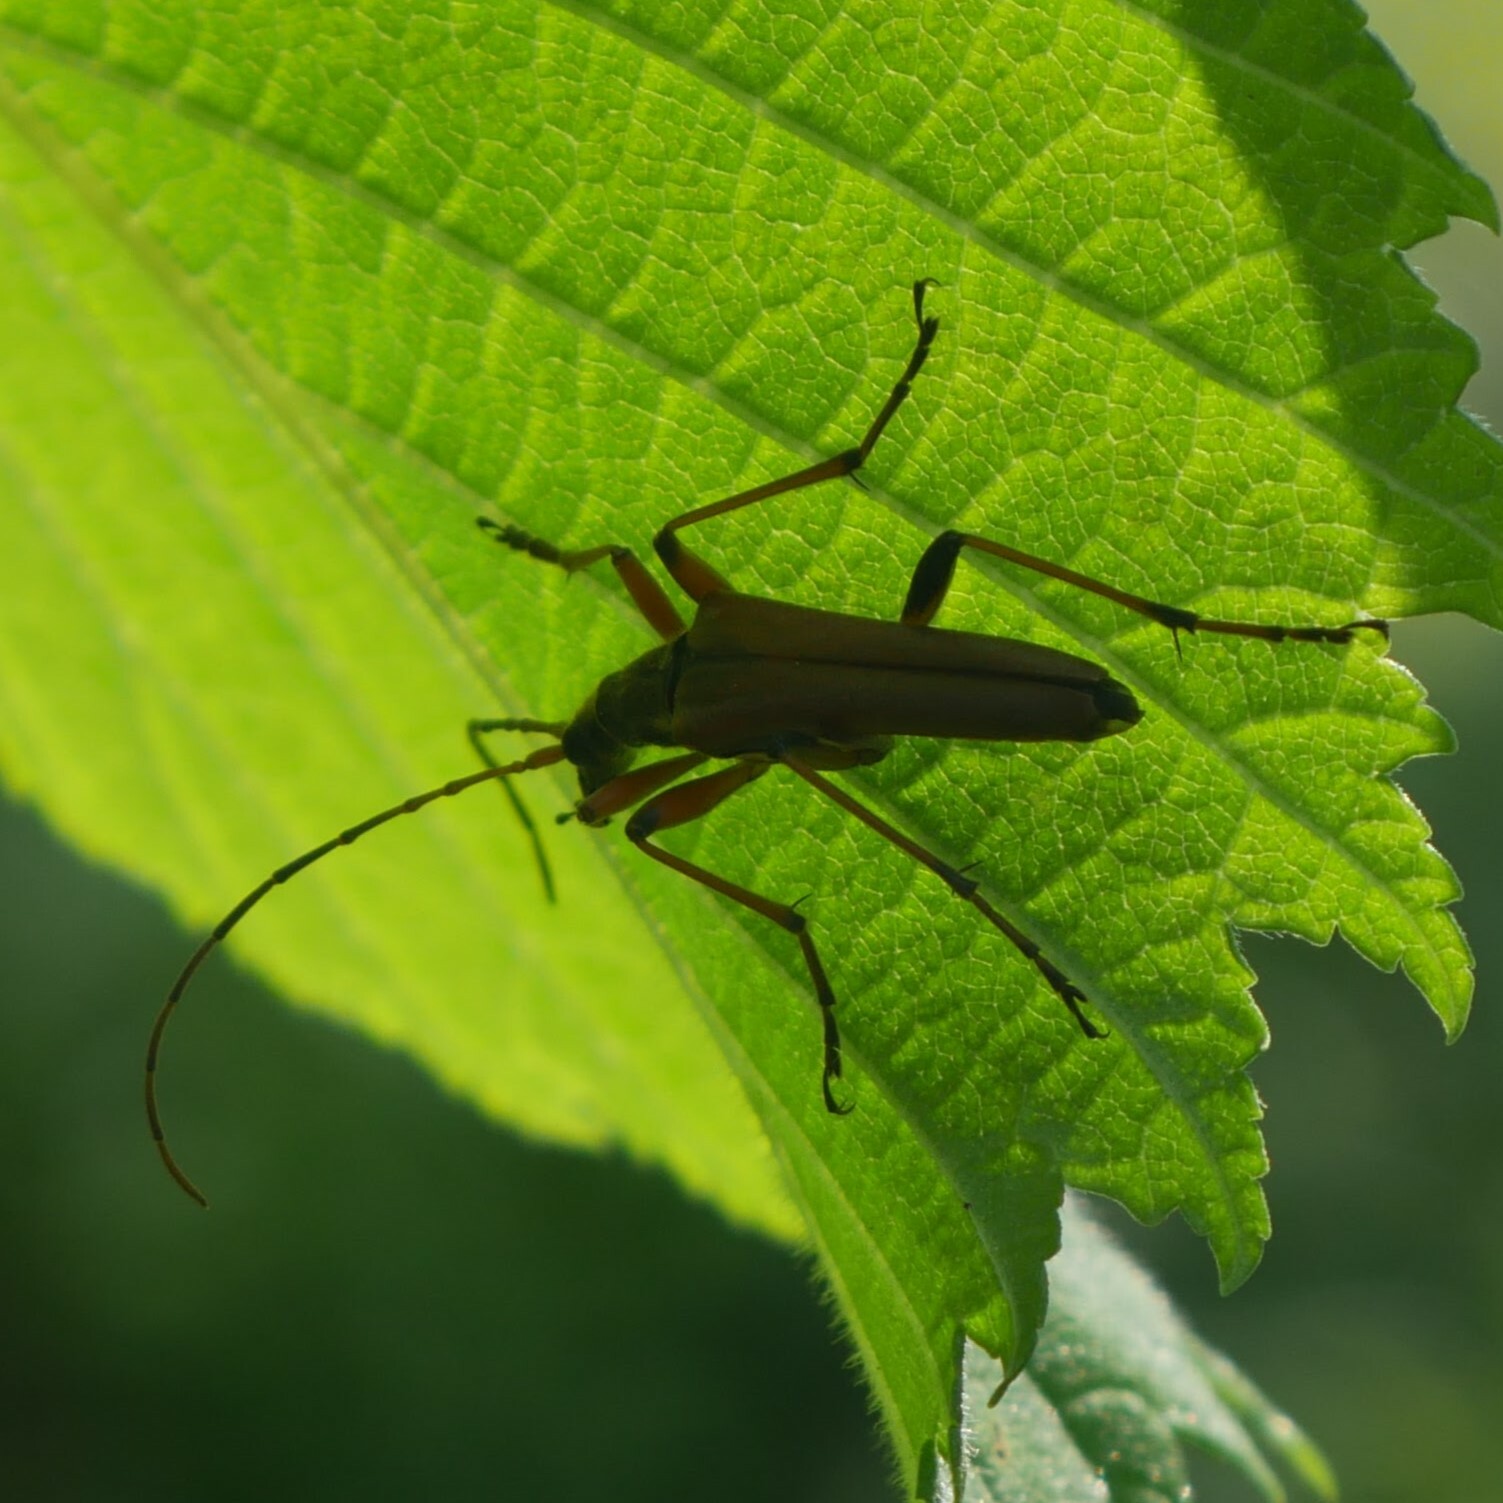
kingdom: Animalia
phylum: Arthropoda
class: Insecta
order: Coleoptera
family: Cerambycidae
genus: Stenocorus
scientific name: Stenocorus meridianus
